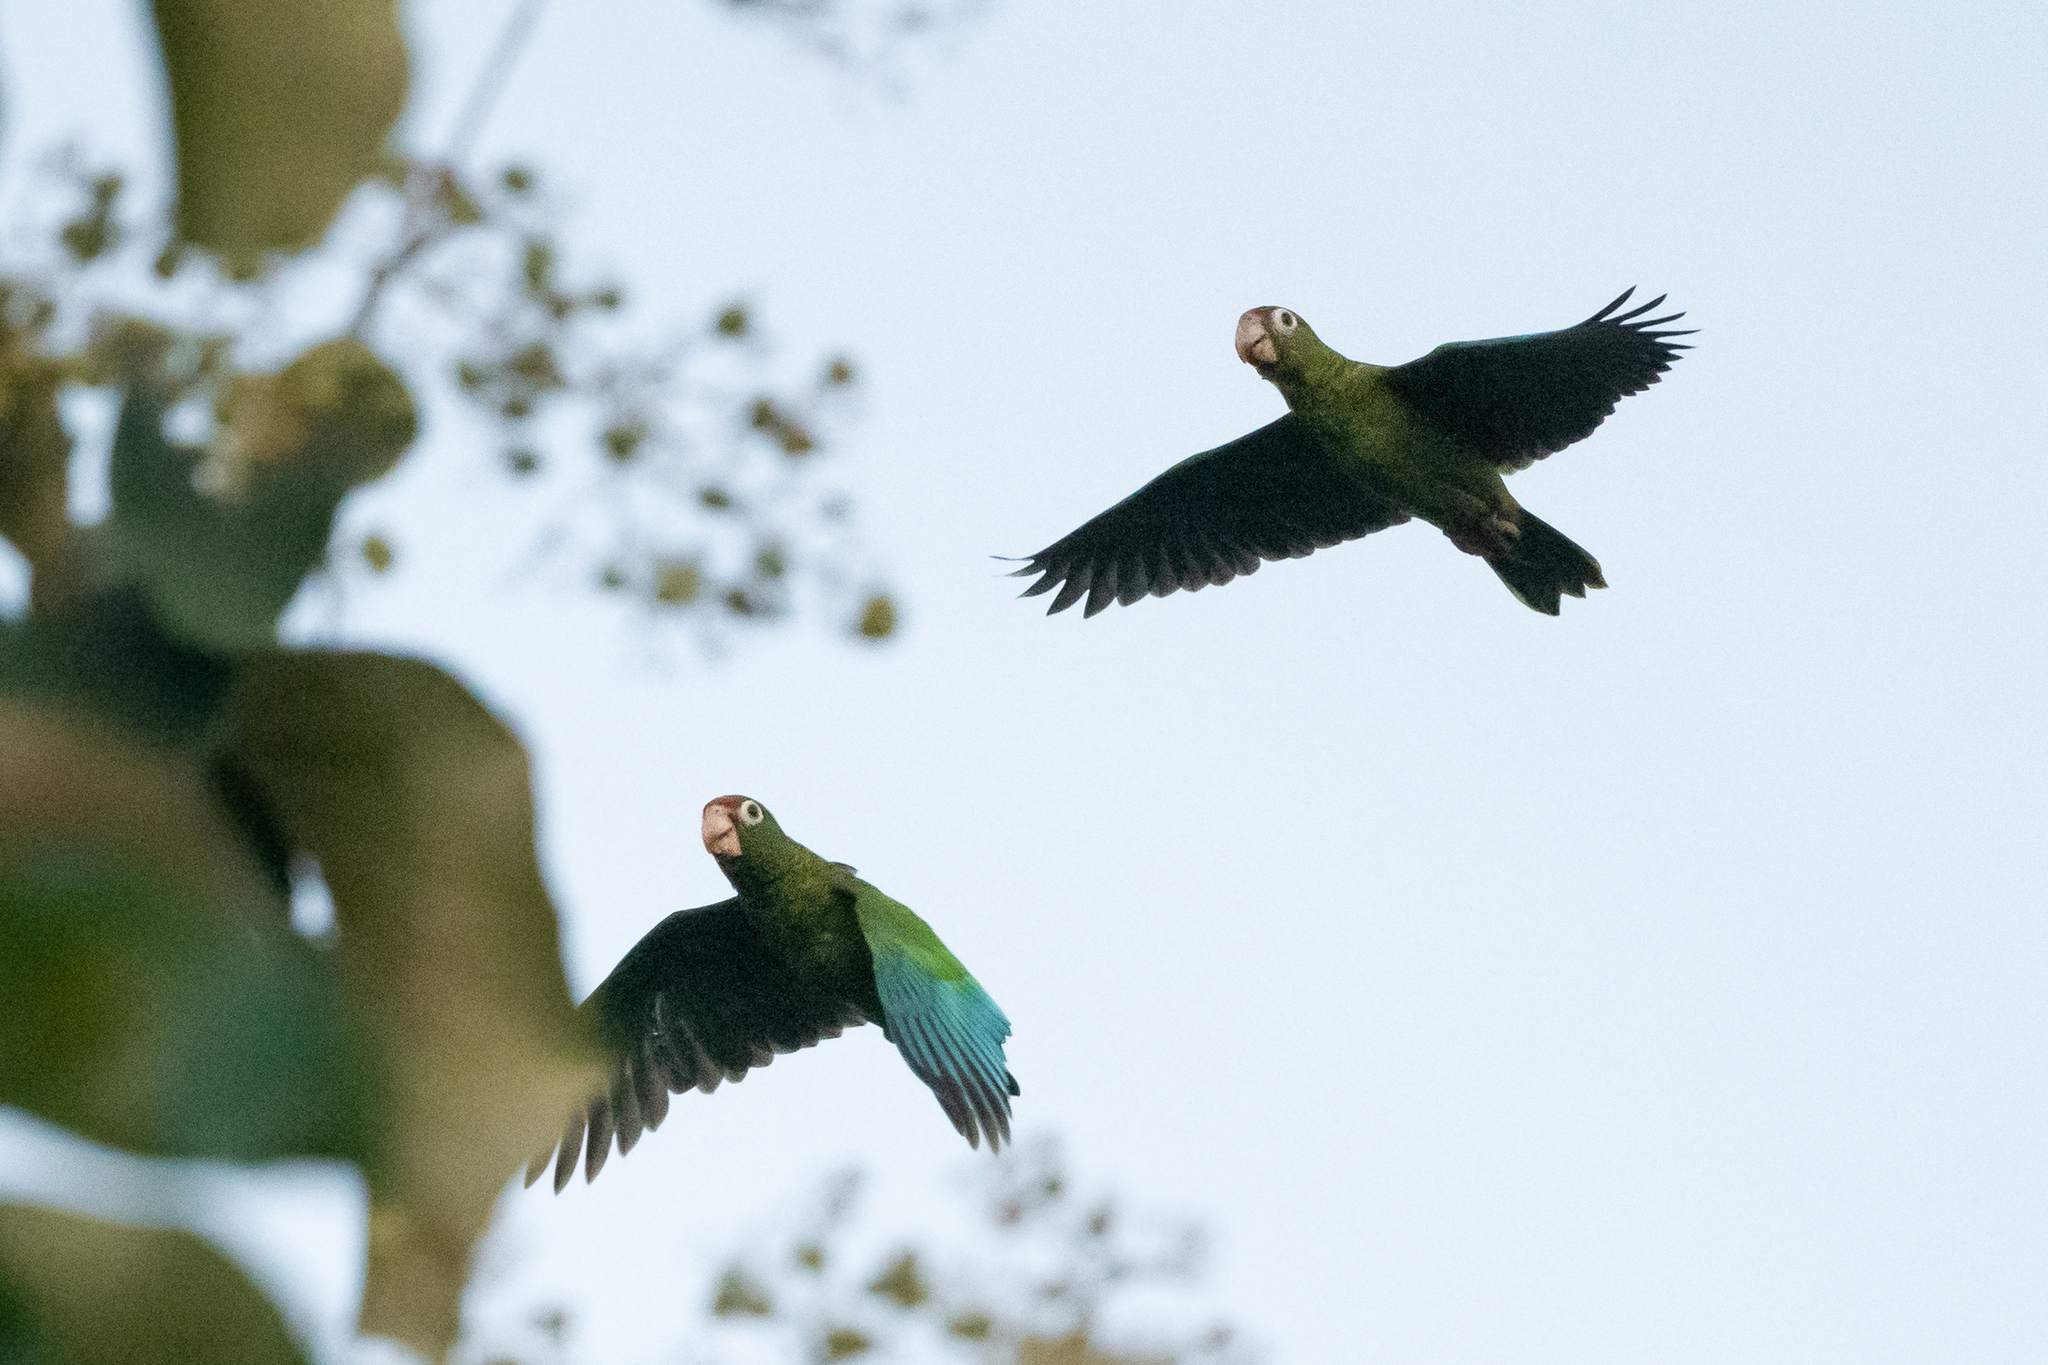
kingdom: Animalia
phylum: Chordata
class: Aves
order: Psittaciformes
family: Psittacidae
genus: Amazona
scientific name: Amazona vittata
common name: Puerto rican amazon
